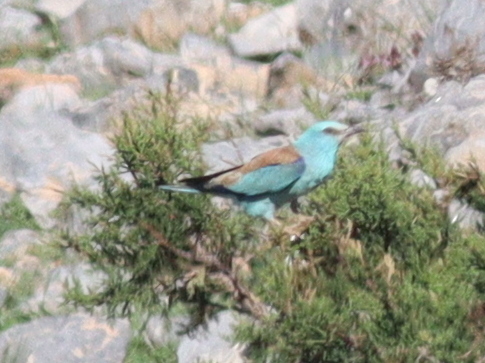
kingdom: Animalia
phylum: Chordata
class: Aves
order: Coraciiformes
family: Coraciidae
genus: Coracias
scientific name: Coracias garrulus
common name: European roller
